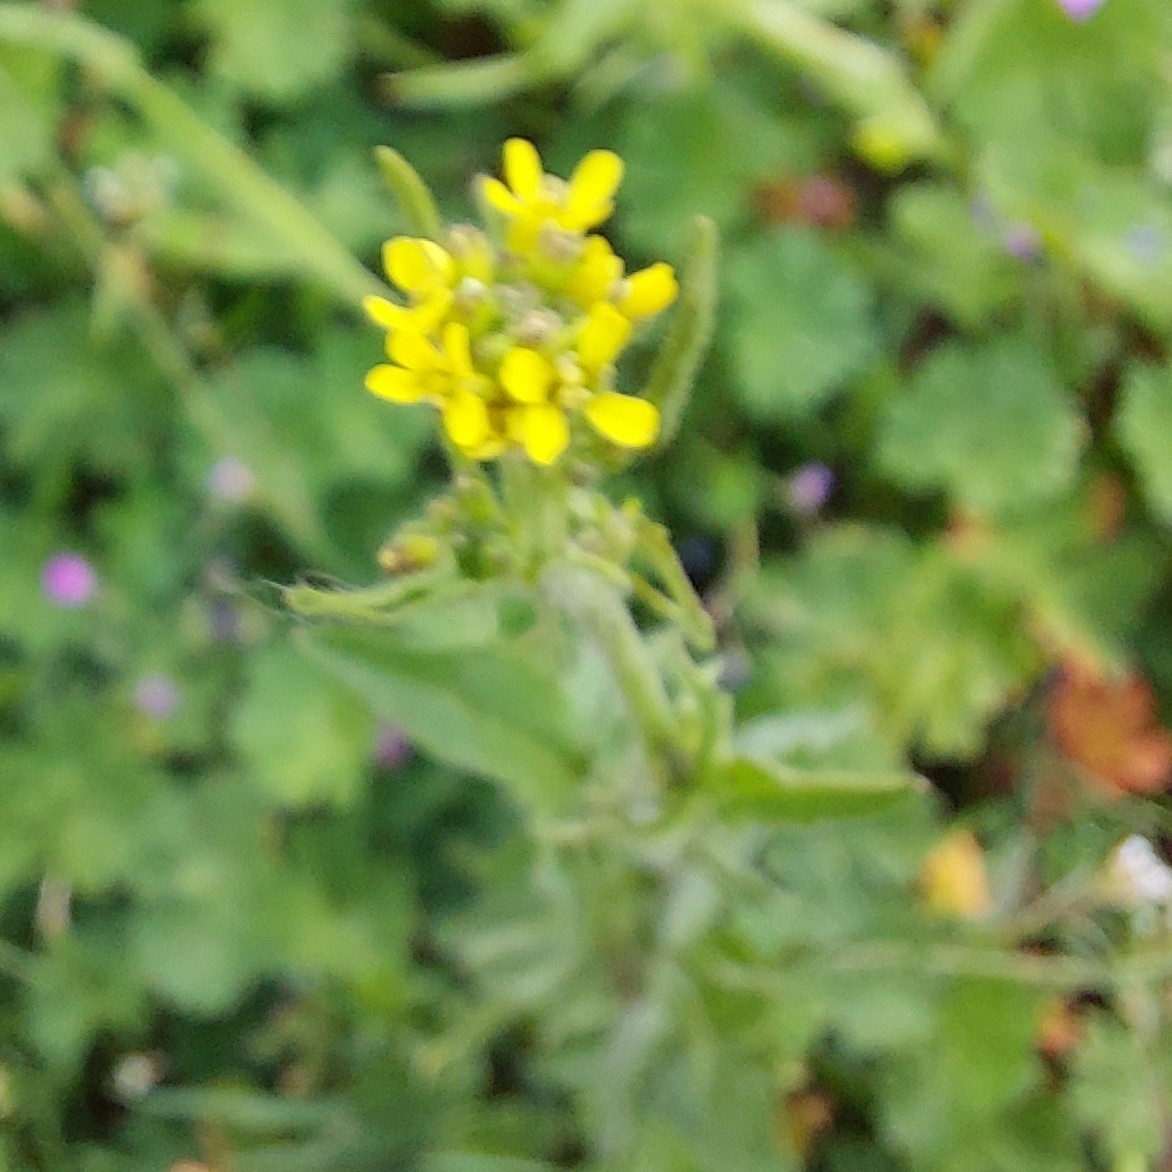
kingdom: Plantae
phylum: Tracheophyta
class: Magnoliopsida
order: Brassicales
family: Brassicaceae
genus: Sisymbrium
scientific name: Sisymbrium officinale
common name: Hedge mustard
